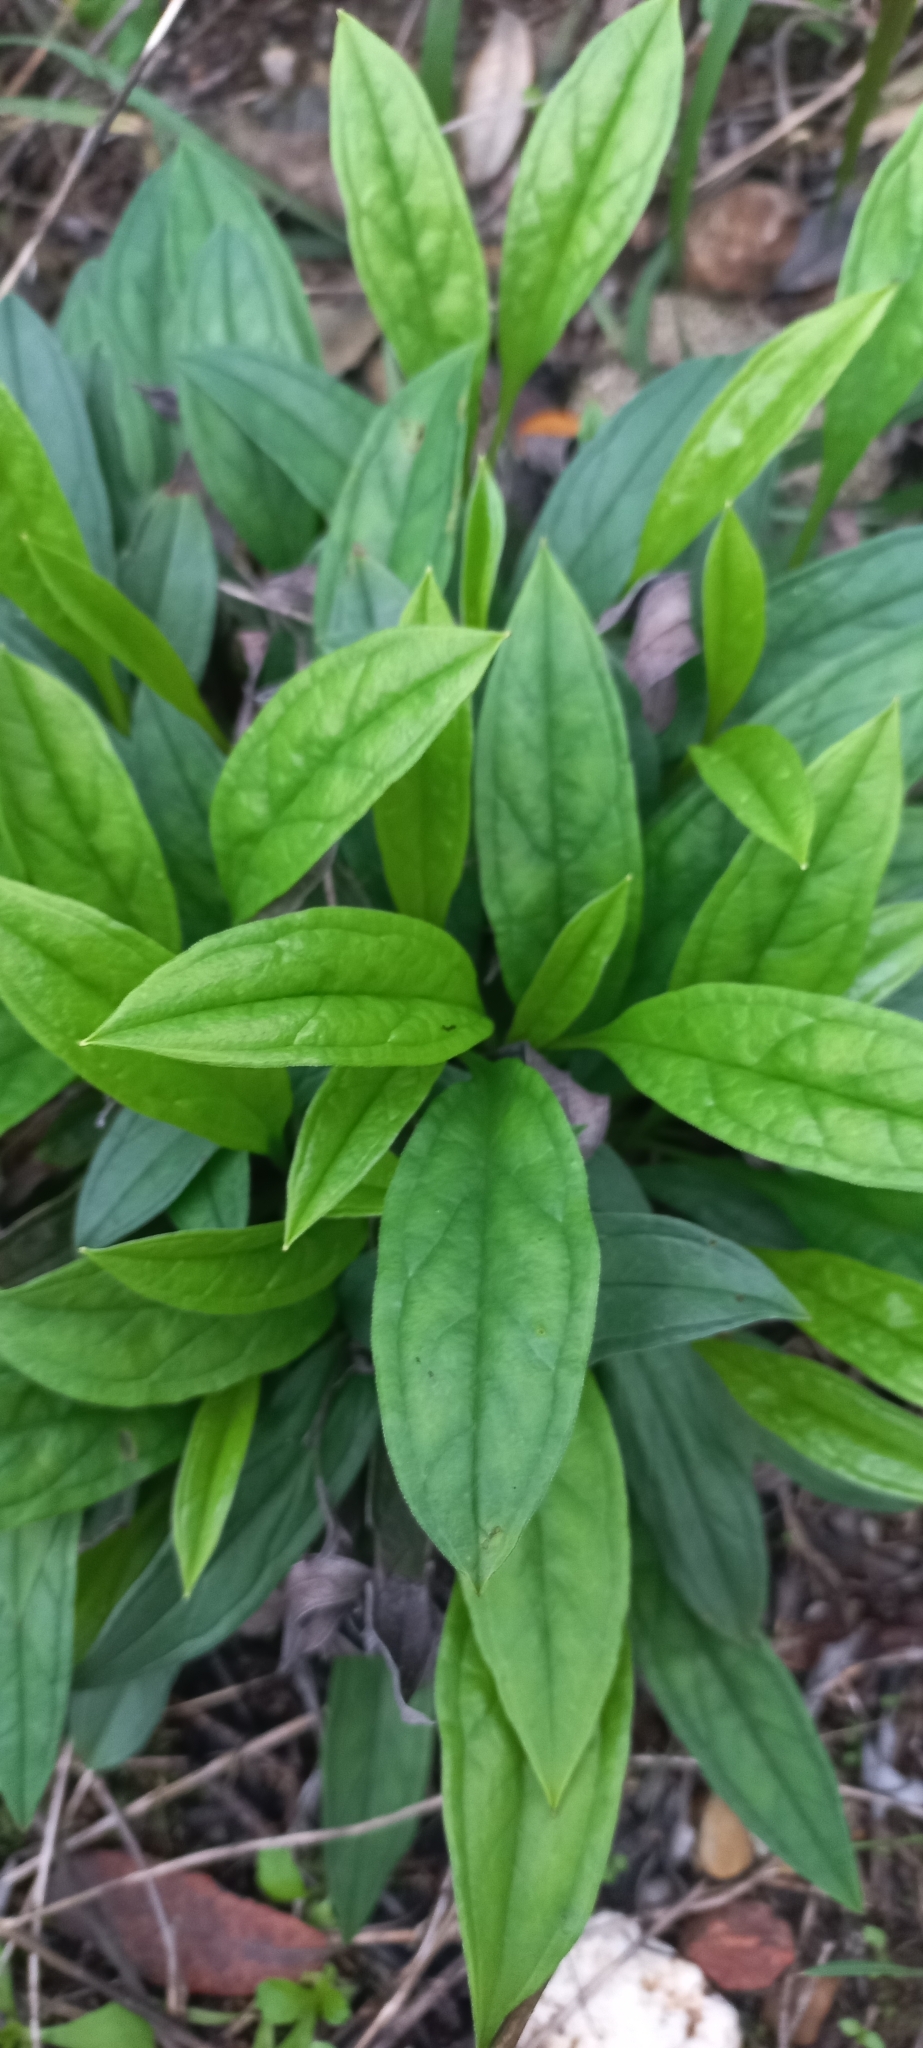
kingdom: Plantae
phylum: Tracheophyta
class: Magnoliopsida
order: Boraginales
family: Boraginaceae
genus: Omphalodes
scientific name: Omphalodes nitida
